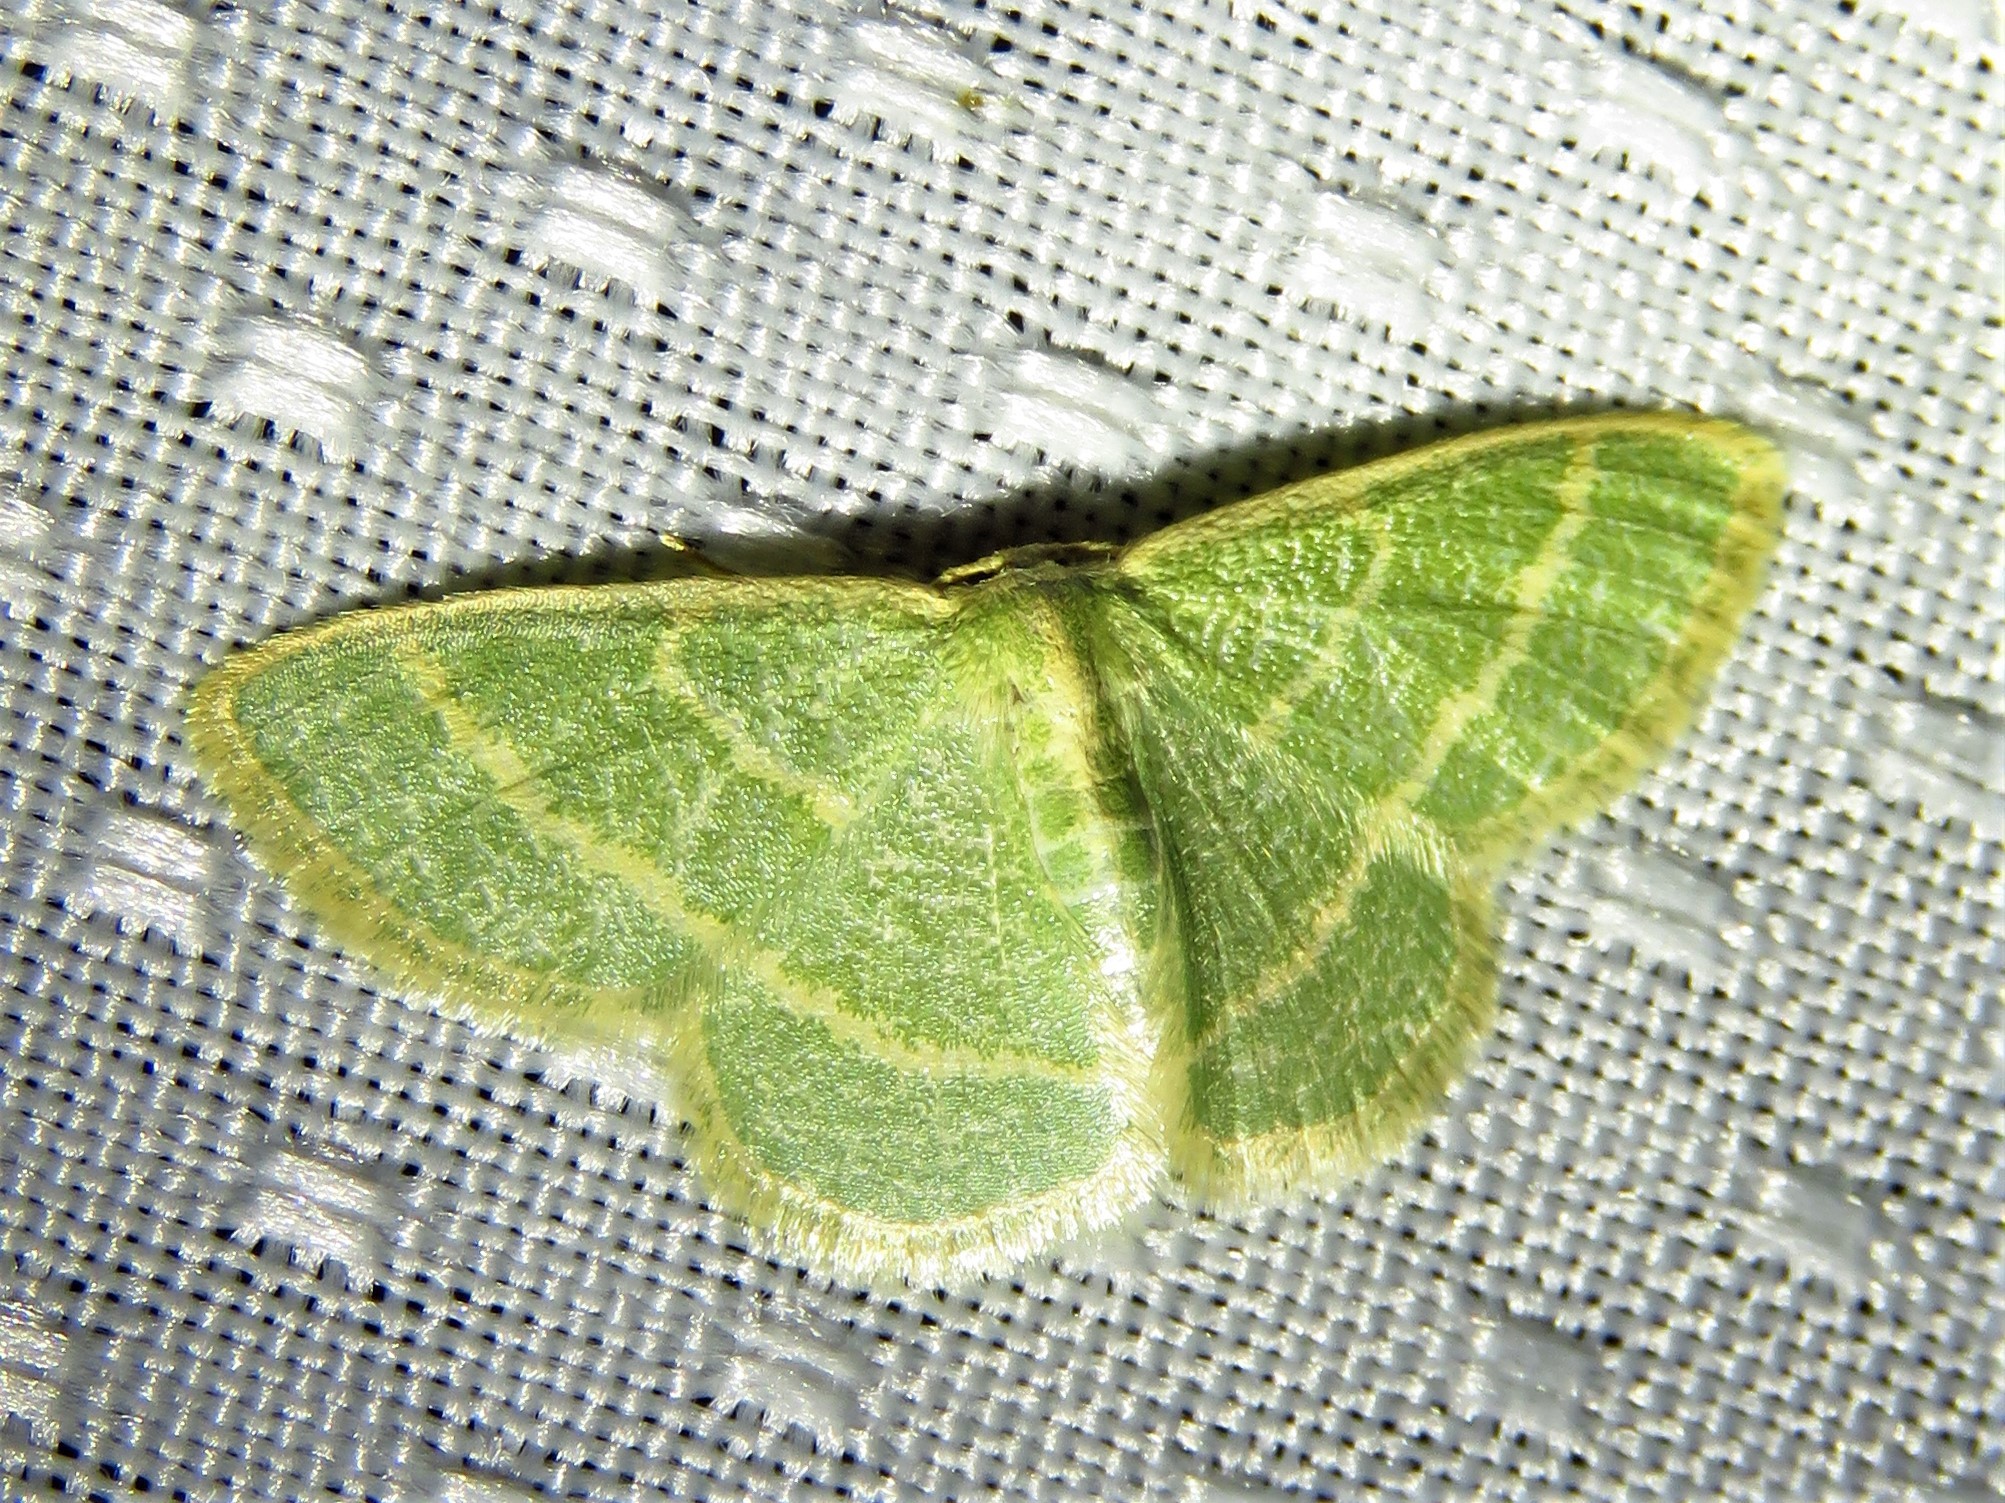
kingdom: Animalia
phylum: Arthropoda
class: Insecta
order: Lepidoptera
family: Geometridae
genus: Chlorochlamys
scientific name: Chlorochlamys chloroleucaria
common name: Blackberry looper
